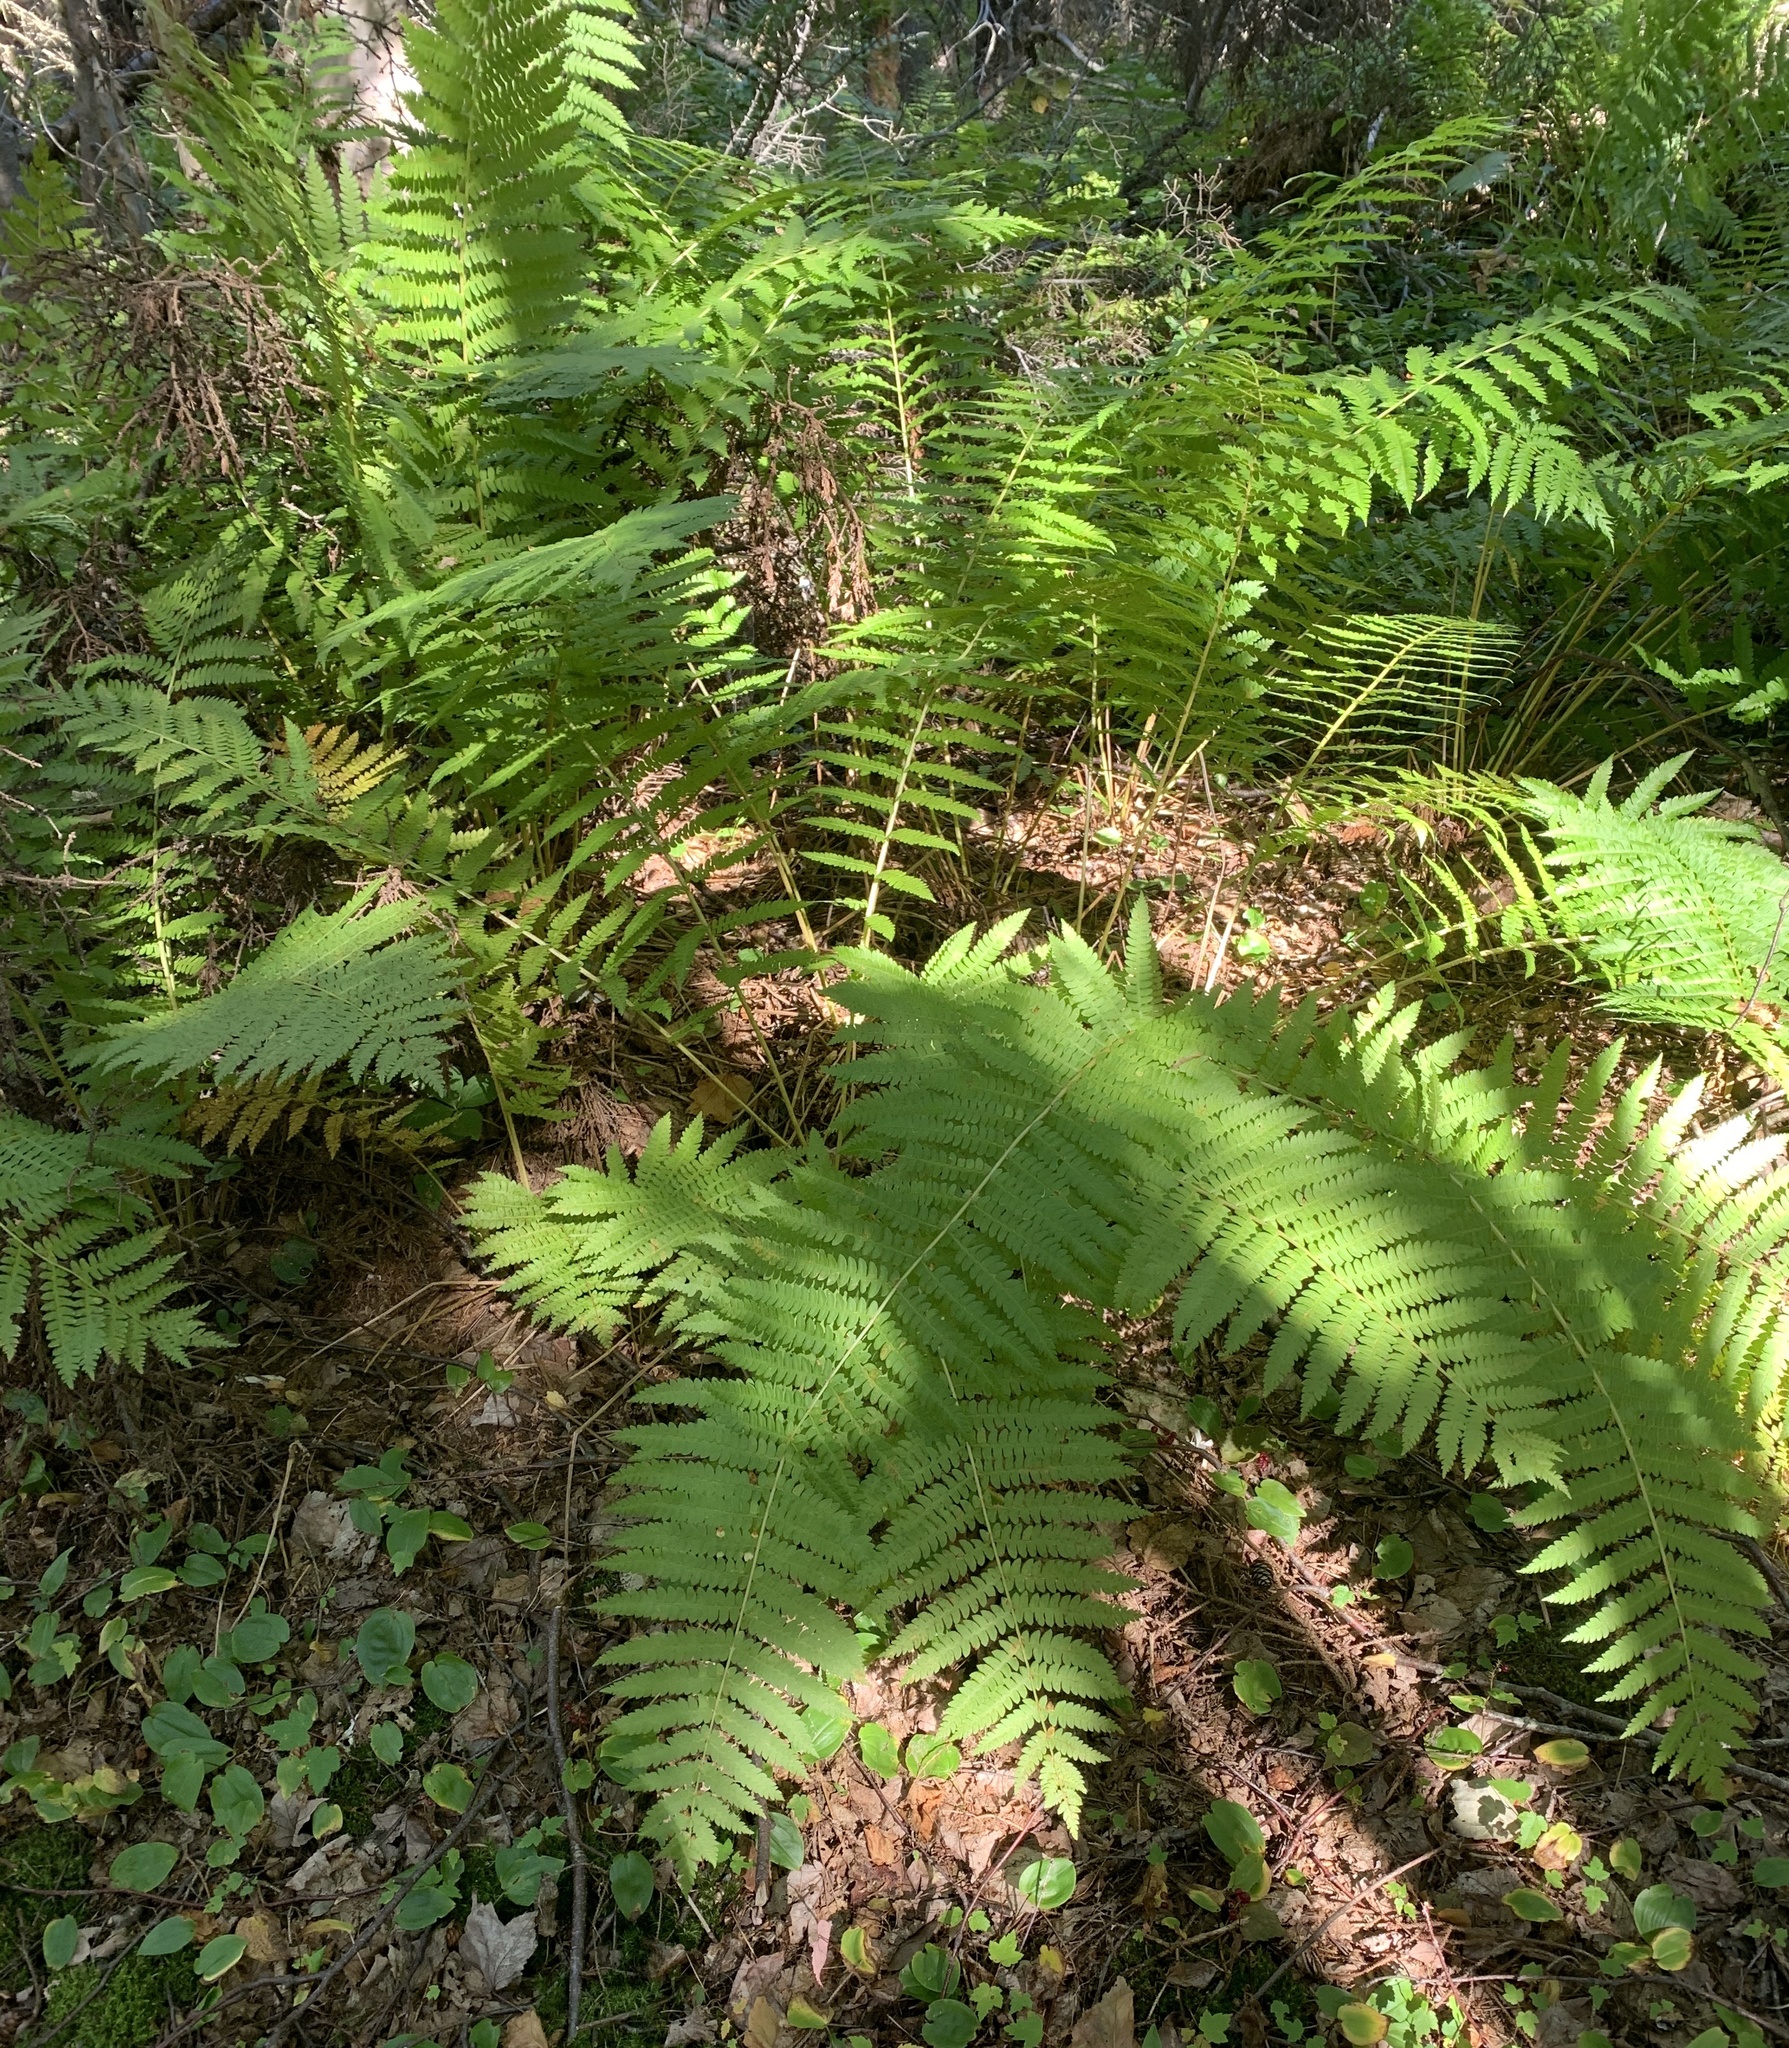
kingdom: Plantae
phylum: Tracheophyta
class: Polypodiopsida
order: Osmundales
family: Osmundaceae
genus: Osmundastrum
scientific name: Osmundastrum cinnamomeum
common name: Cinnamon fern
